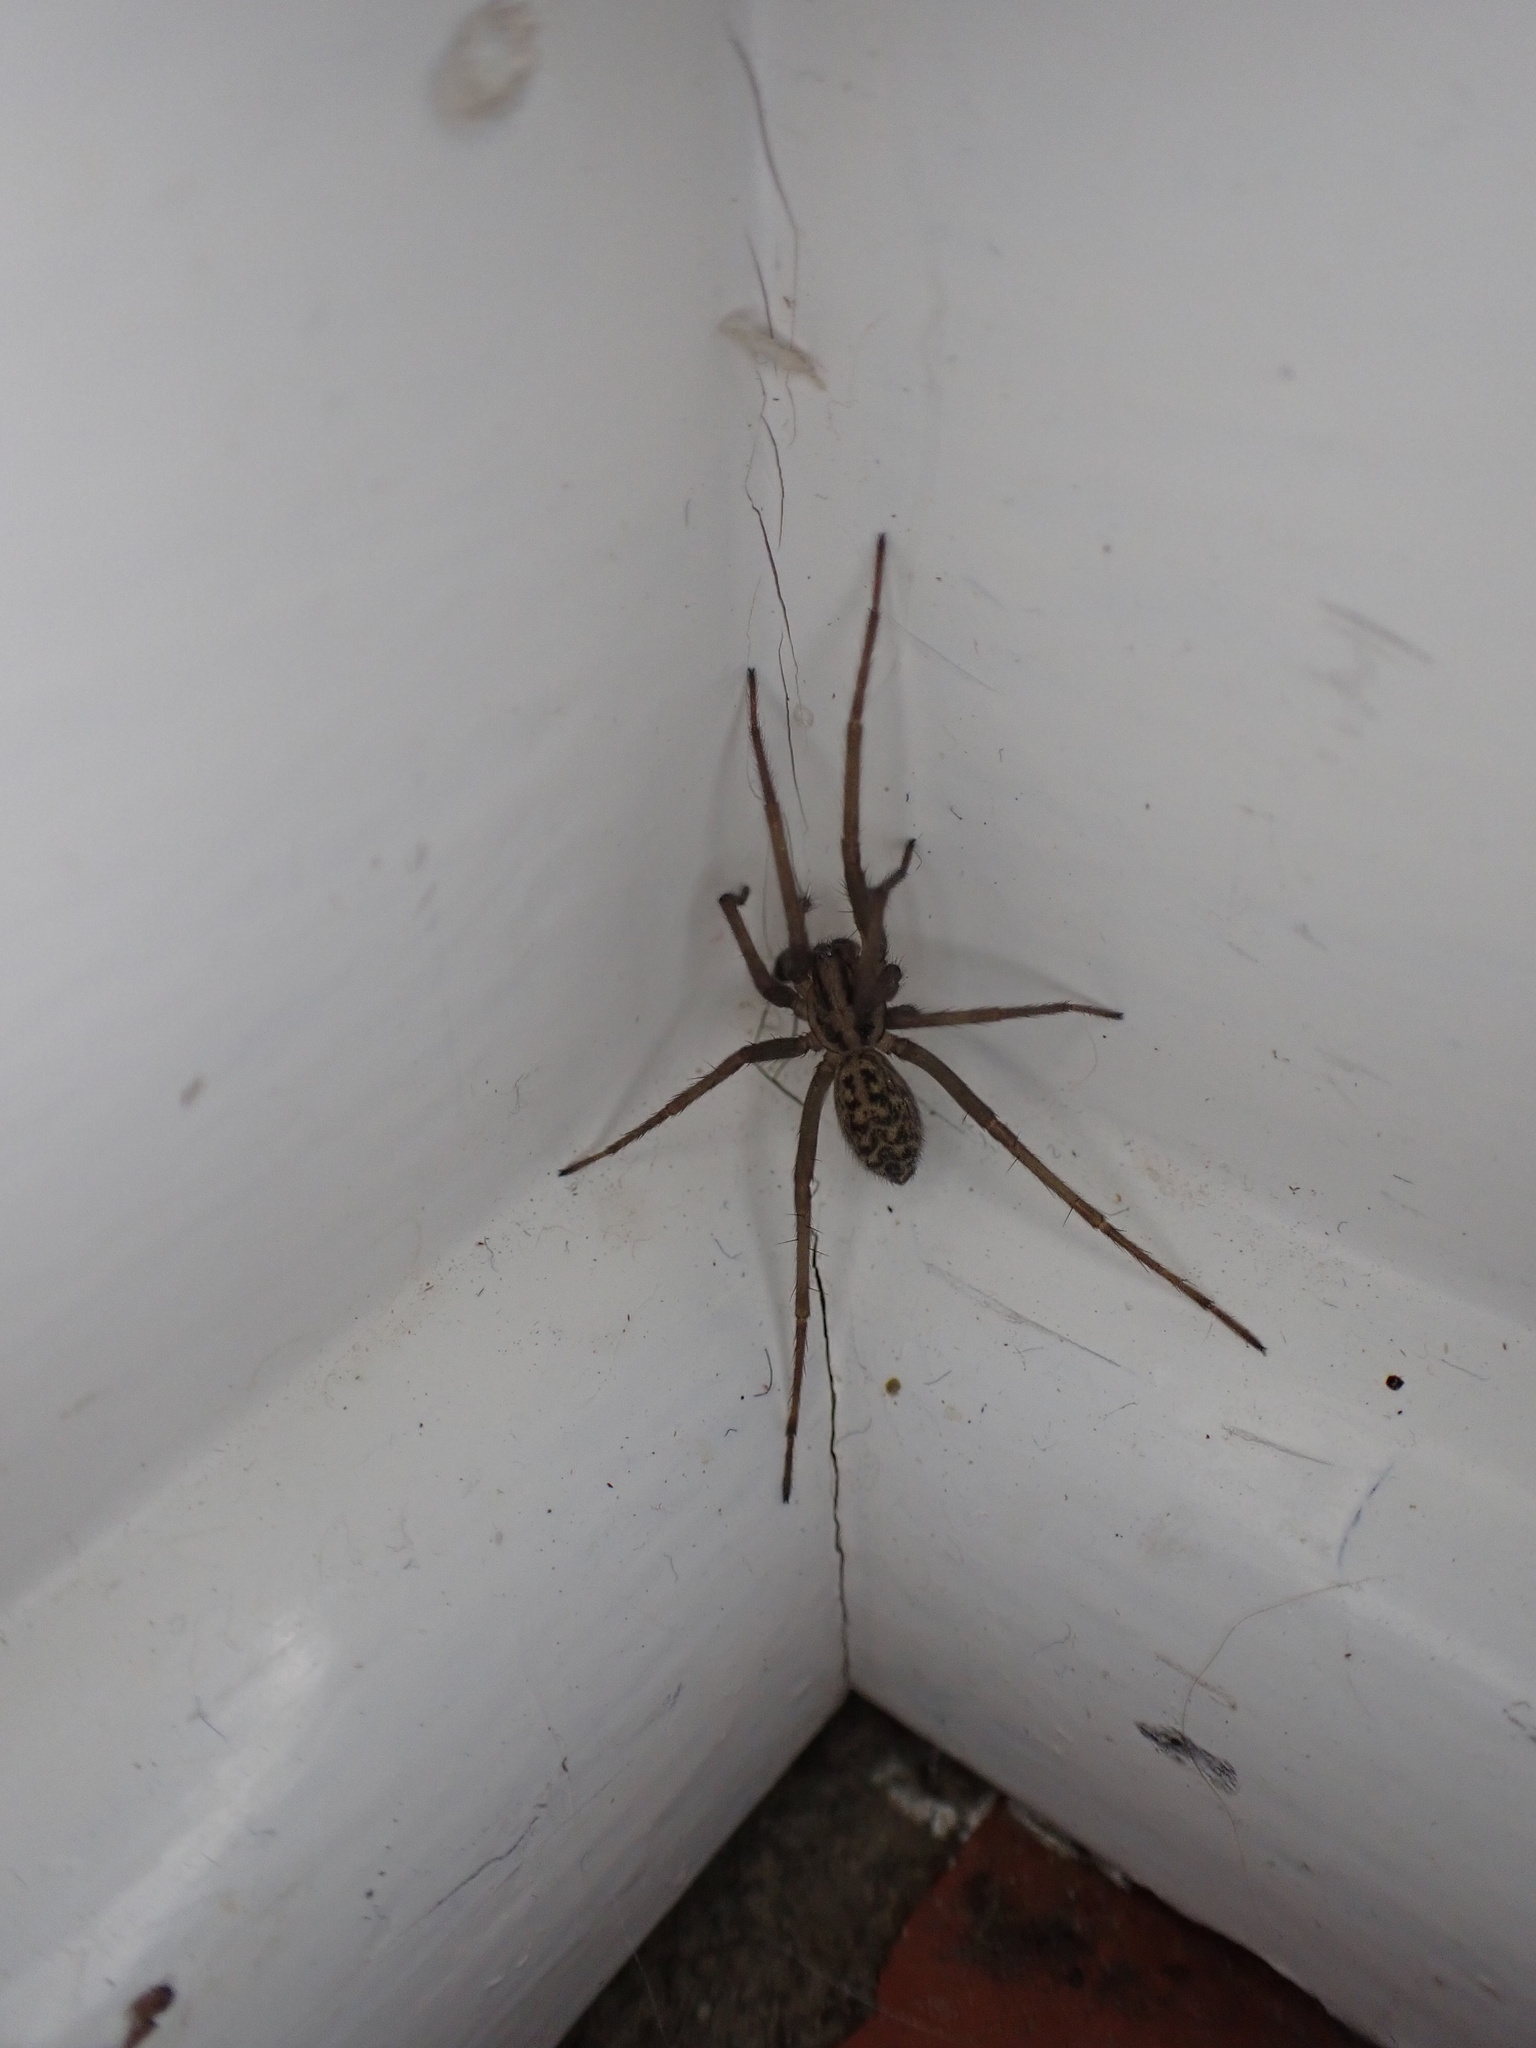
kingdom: Animalia
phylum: Arthropoda
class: Arachnida
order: Araneae
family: Agelenidae
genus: Eratigena
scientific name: Eratigena duellica
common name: Giant house spider
